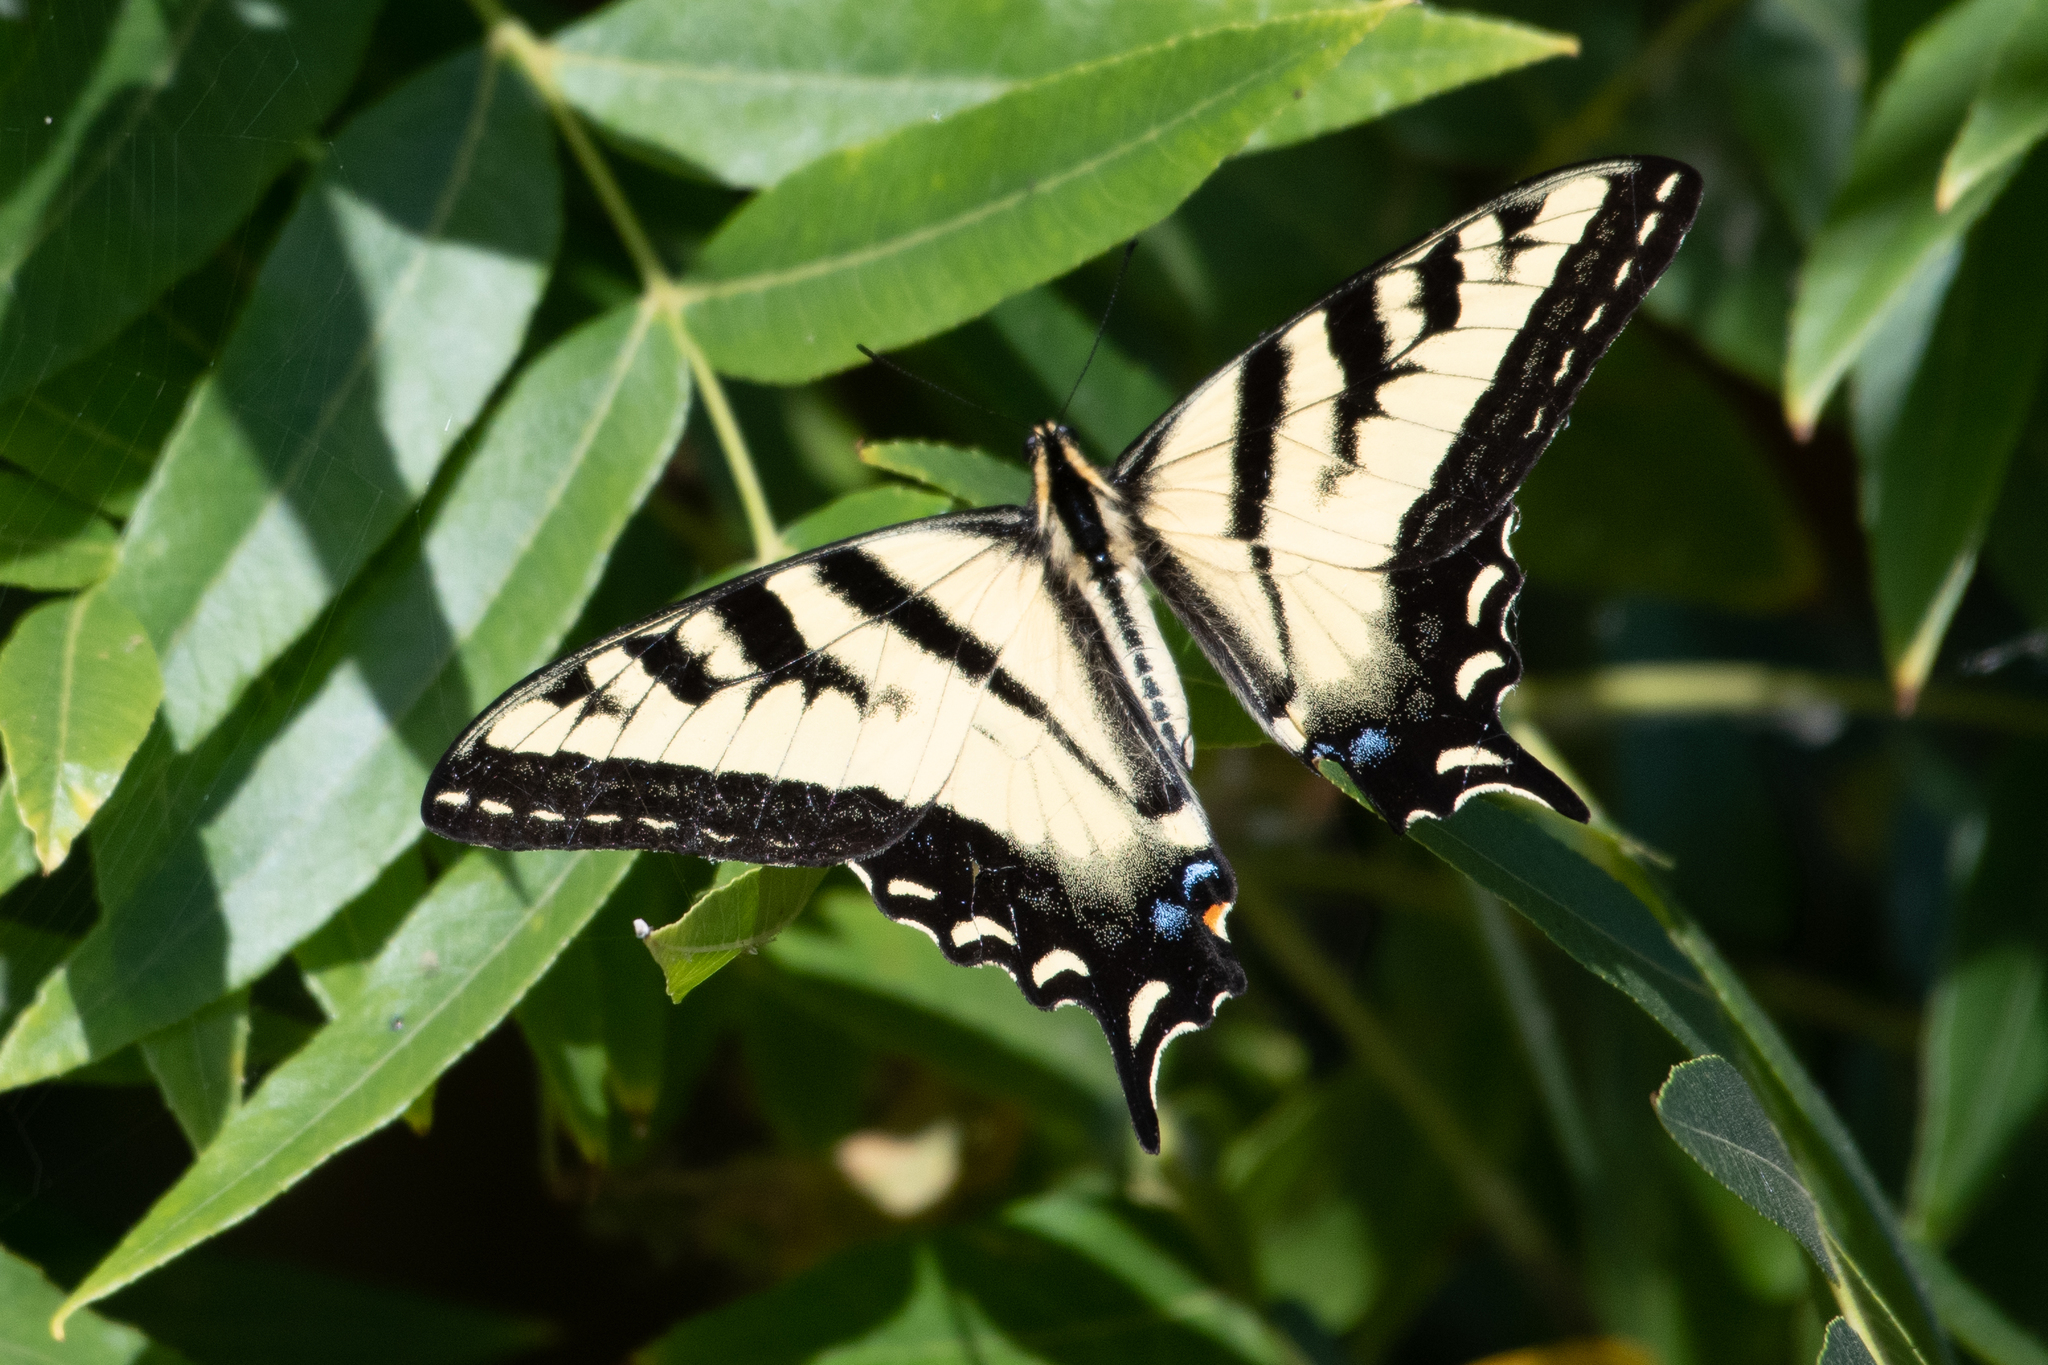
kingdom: Animalia
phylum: Arthropoda
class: Insecta
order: Lepidoptera
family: Papilionidae
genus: Papilio
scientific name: Papilio rutulus
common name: Western tiger swallowtail
